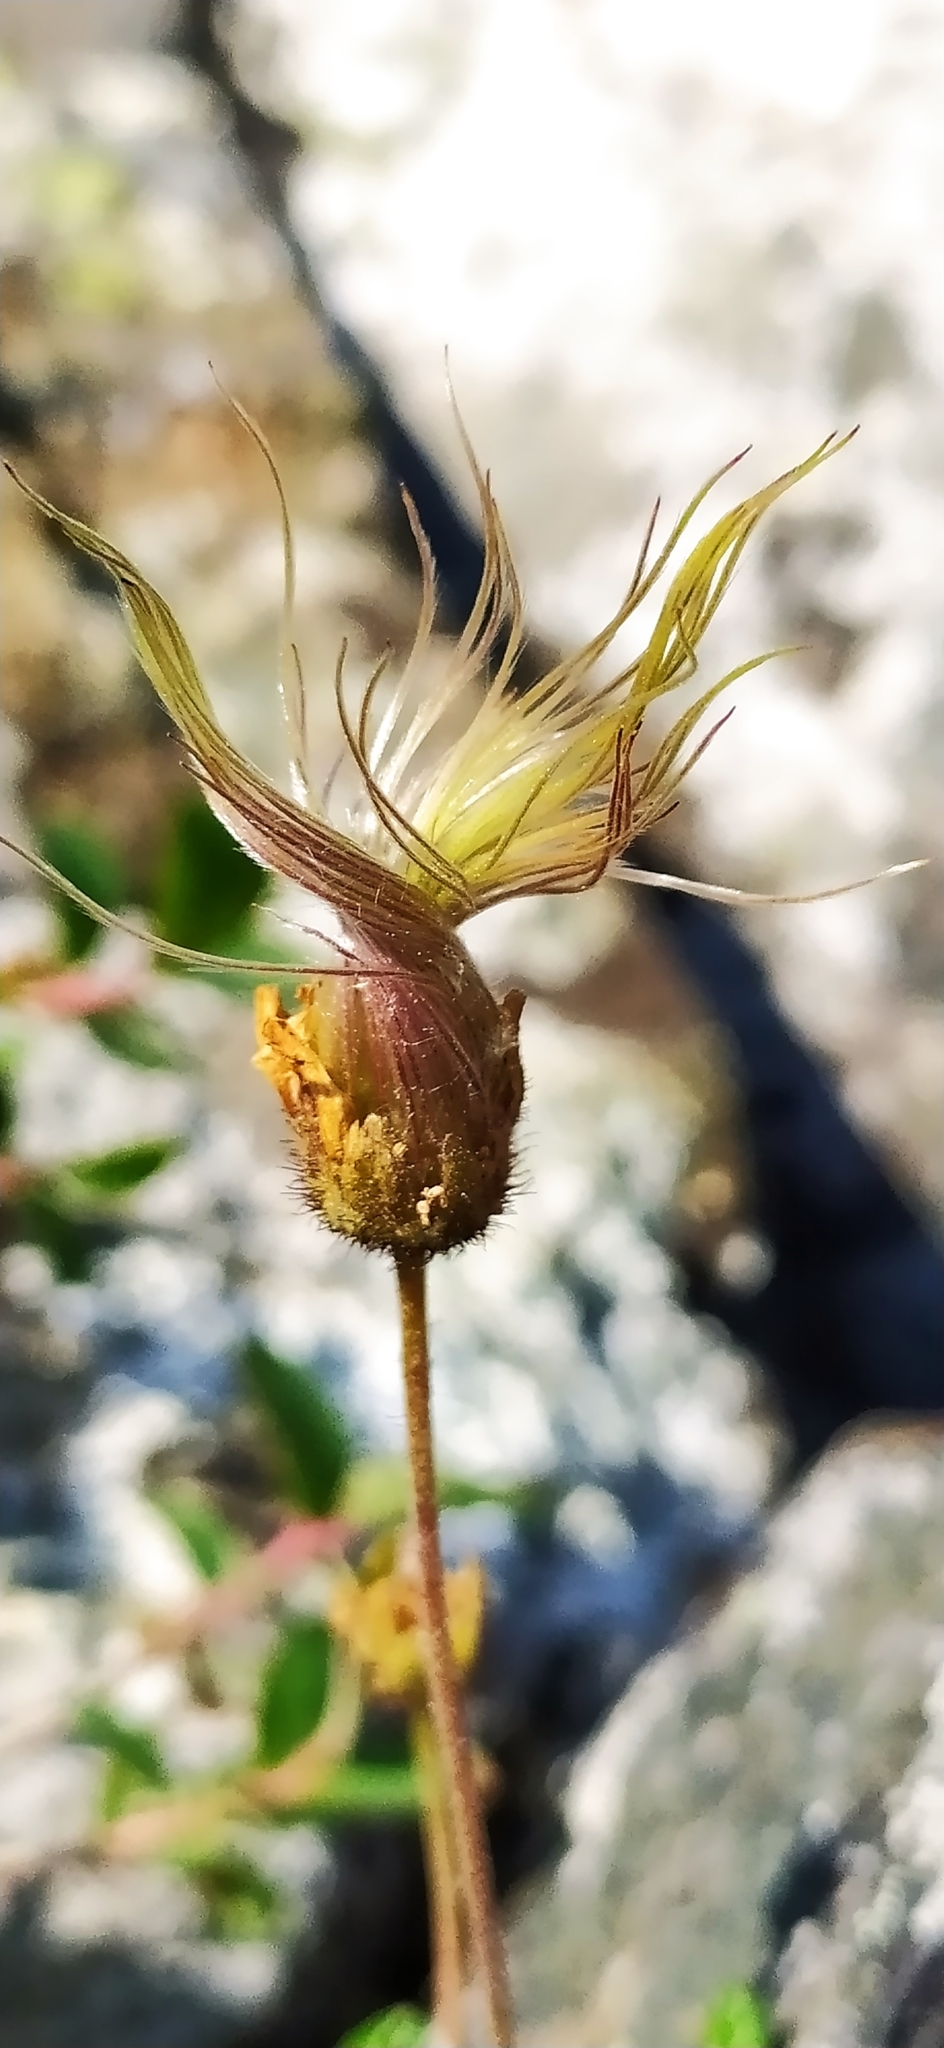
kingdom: Plantae
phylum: Tracheophyta
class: Magnoliopsida
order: Rosales
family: Rosaceae
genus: Dryas
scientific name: Dryas octopetala
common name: Eight-petal mountain-avens
